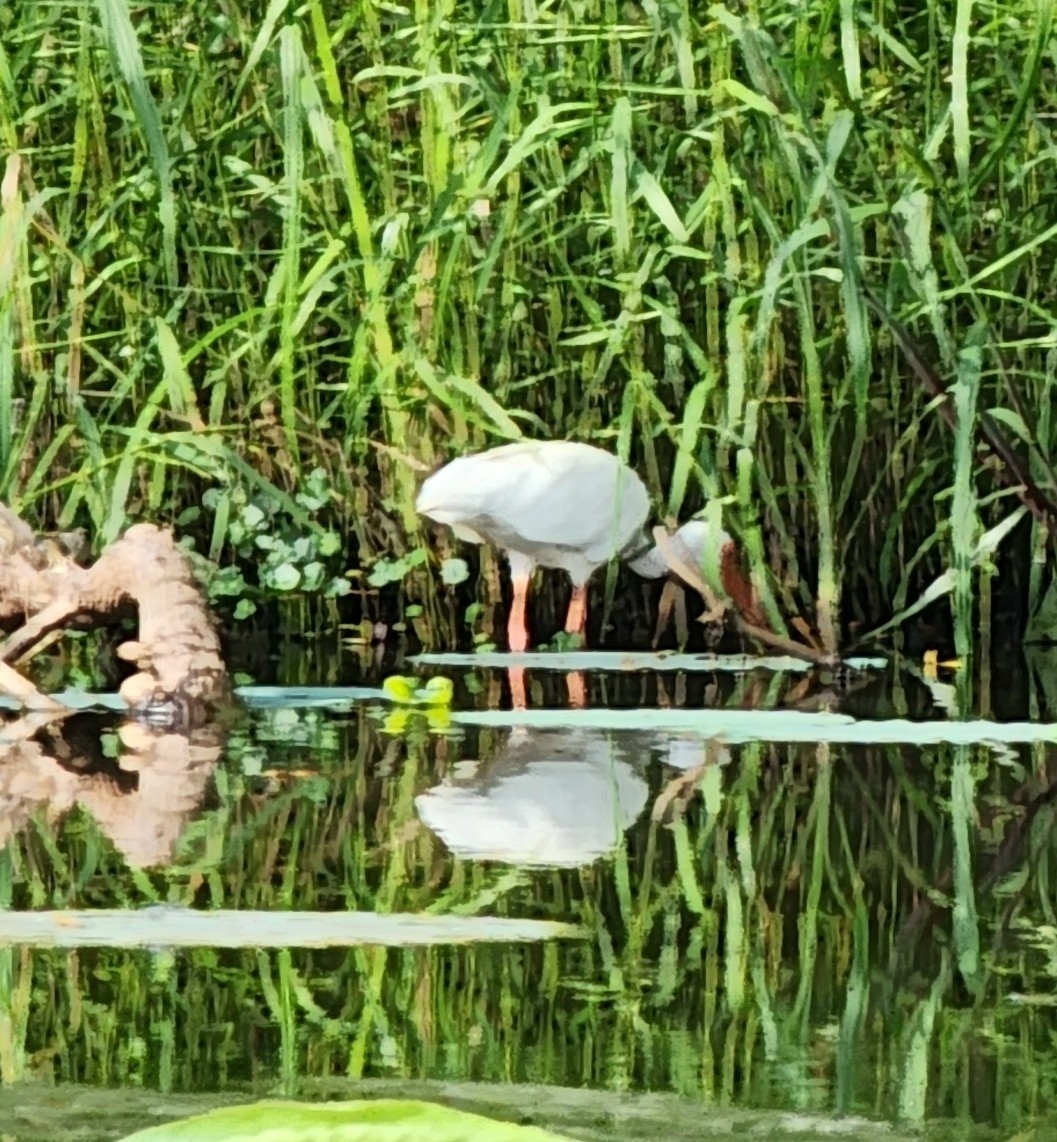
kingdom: Animalia
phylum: Chordata
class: Aves
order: Pelecaniformes
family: Threskiornithidae
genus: Eudocimus
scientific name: Eudocimus albus
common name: White ibis
